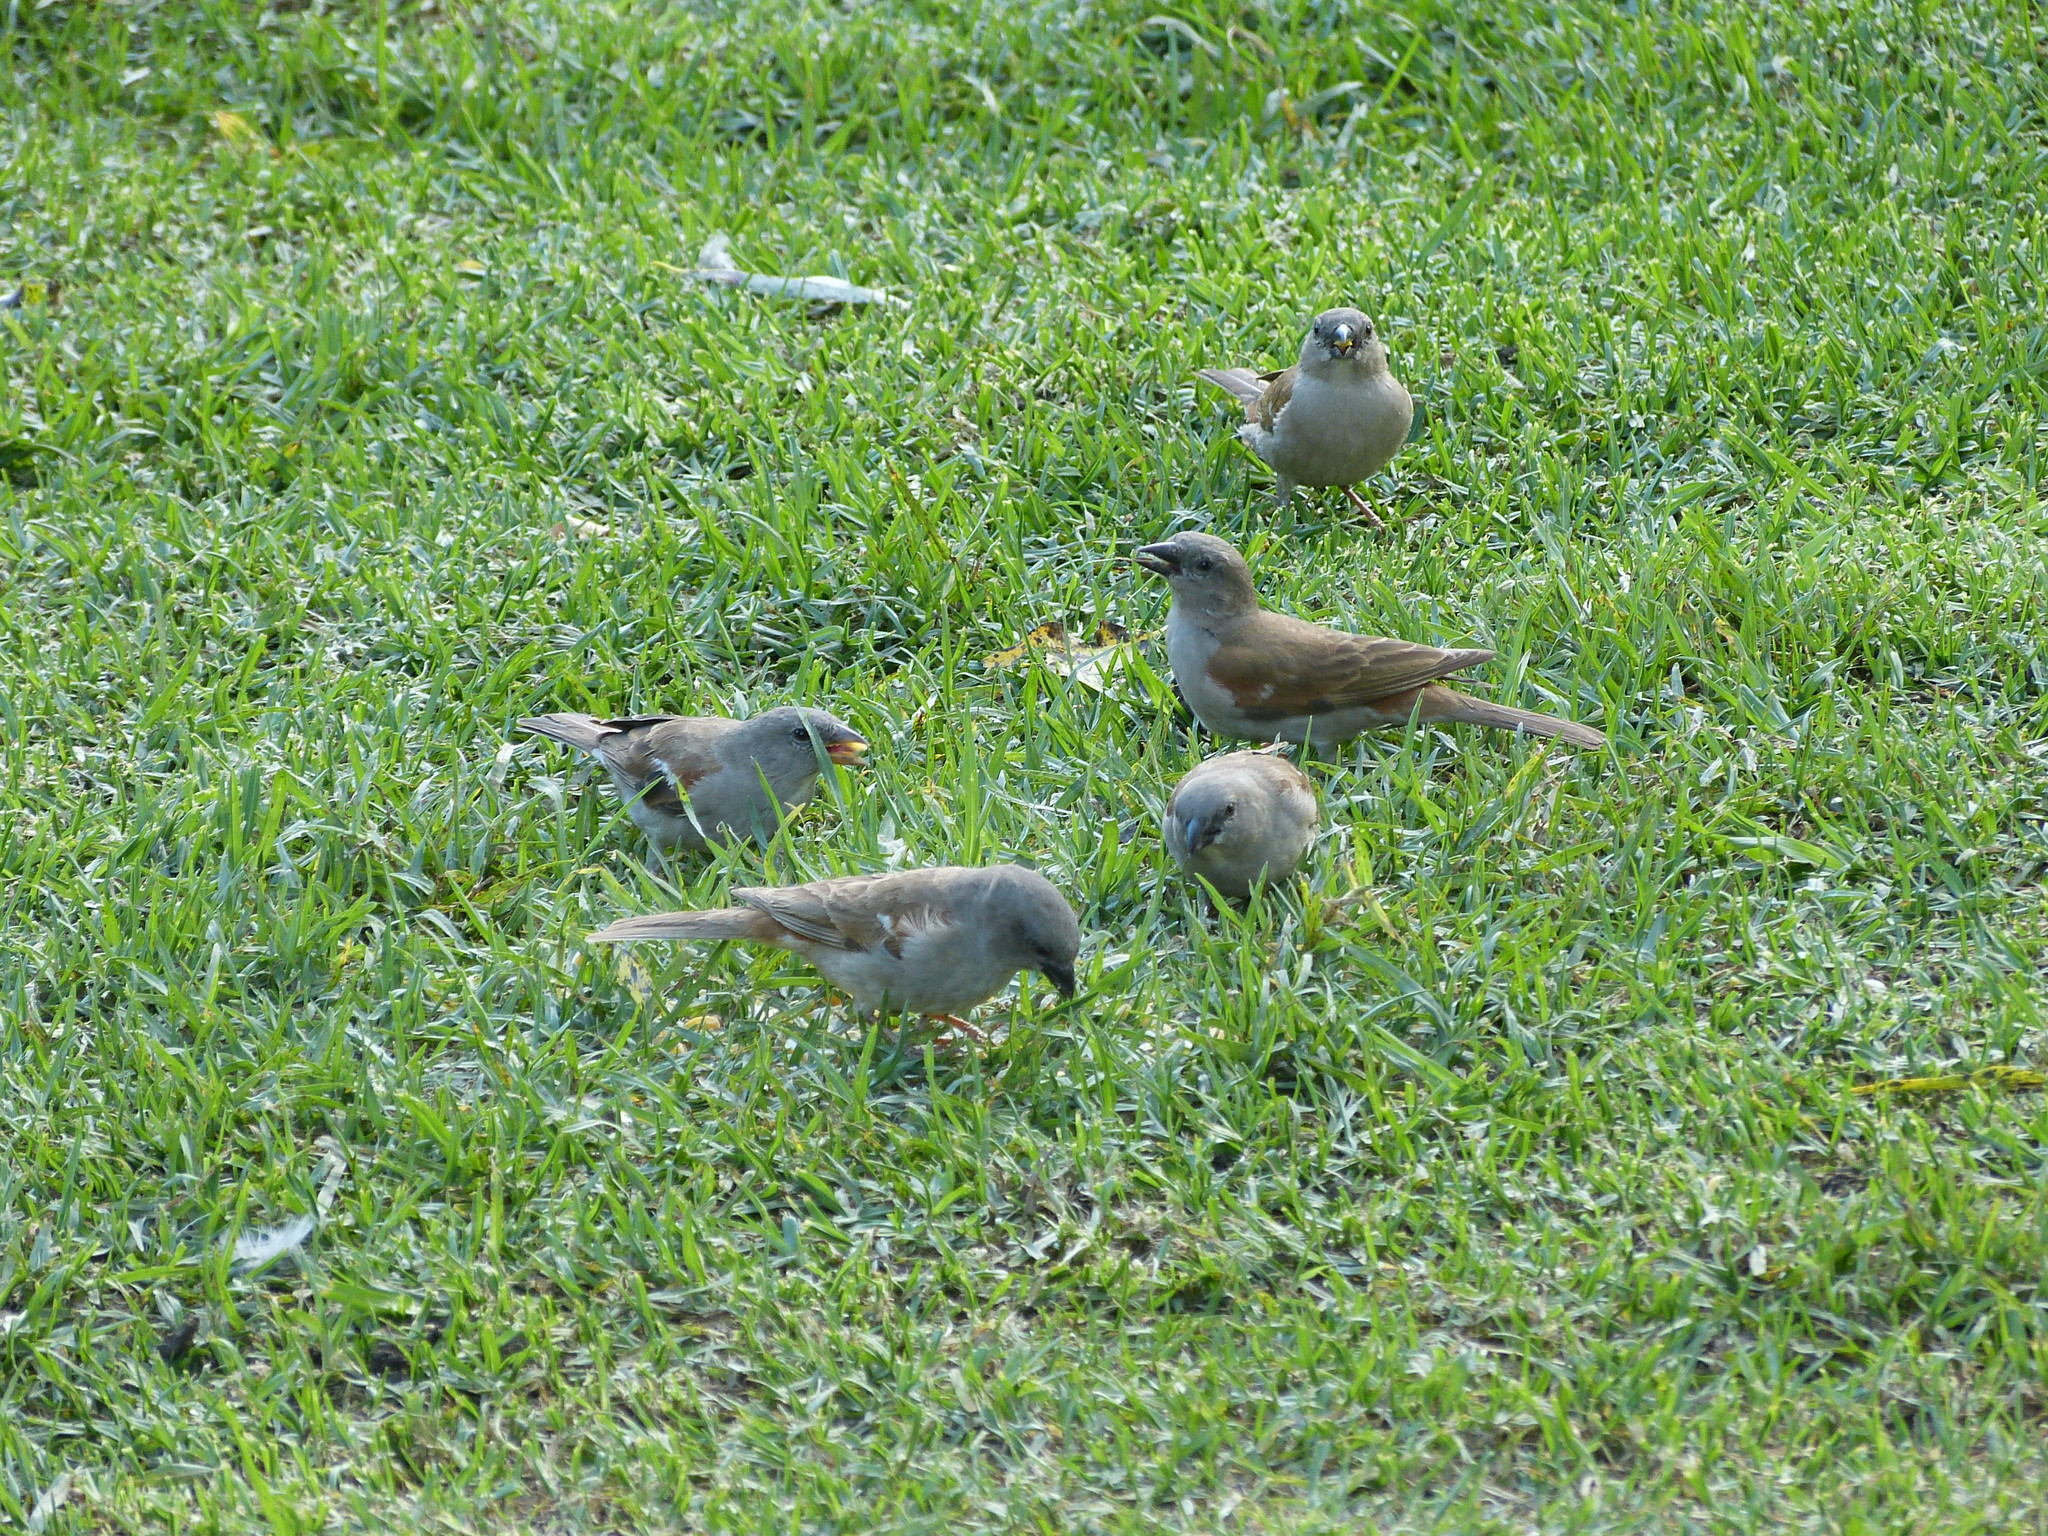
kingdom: Animalia
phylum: Chordata
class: Aves
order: Passeriformes
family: Passeridae
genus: Passer
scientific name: Passer diffusus
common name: Southern grey-headed sparrow
